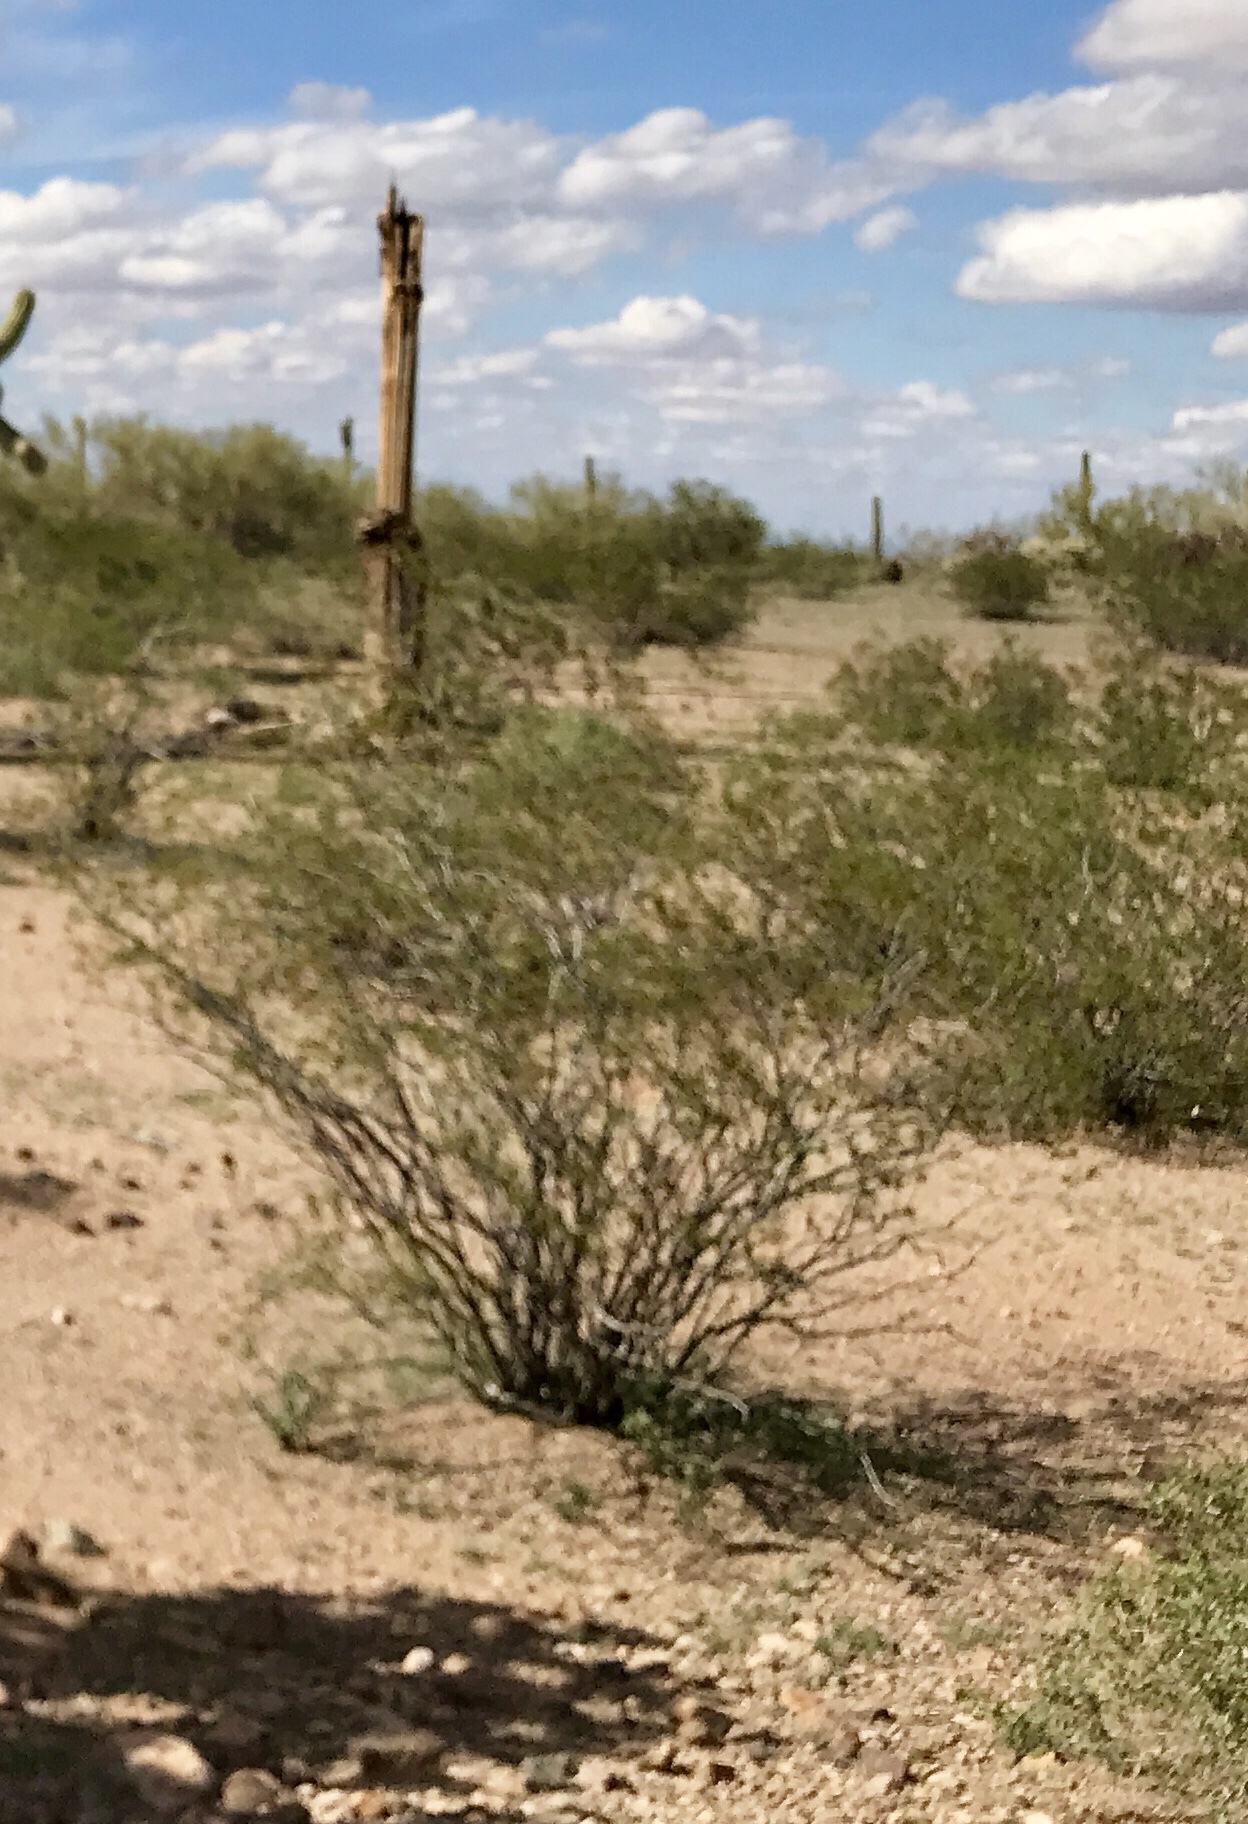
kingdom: Plantae
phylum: Tracheophyta
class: Magnoliopsida
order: Zygophyllales
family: Zygophyllaceae
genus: Larrea
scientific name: Larrea tridentata
